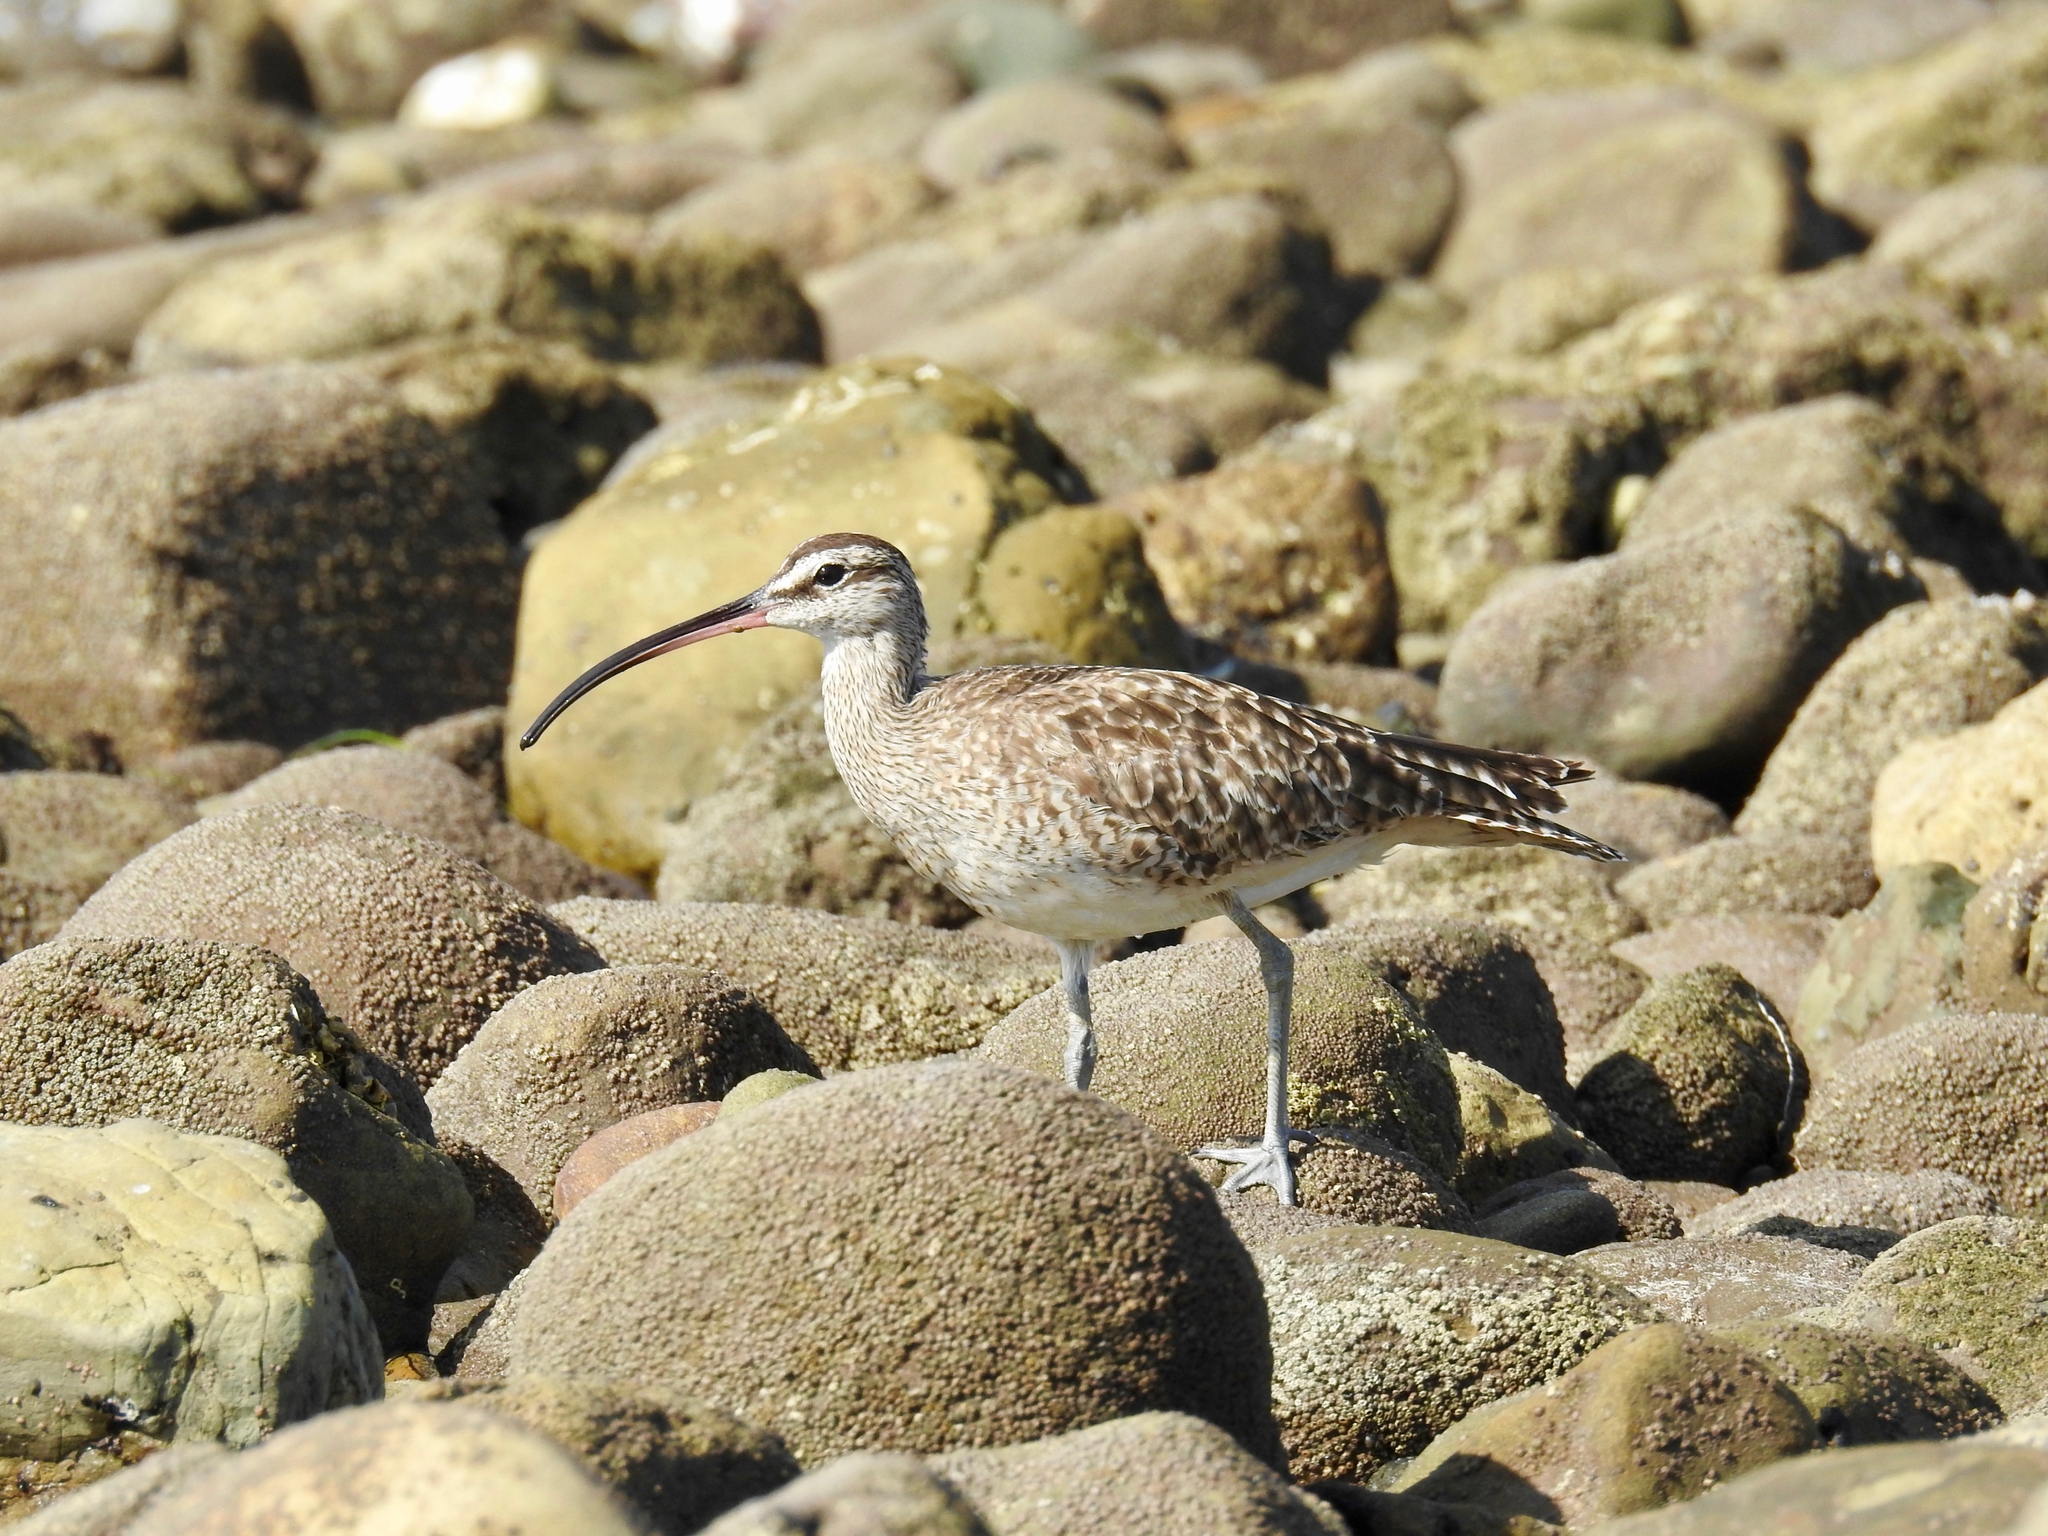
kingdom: Animalia
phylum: Chordata
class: Aves
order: Charadriiformes
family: Scolopacidae
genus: Numenius
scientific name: Numenius phaeopus
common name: Whimbrel
